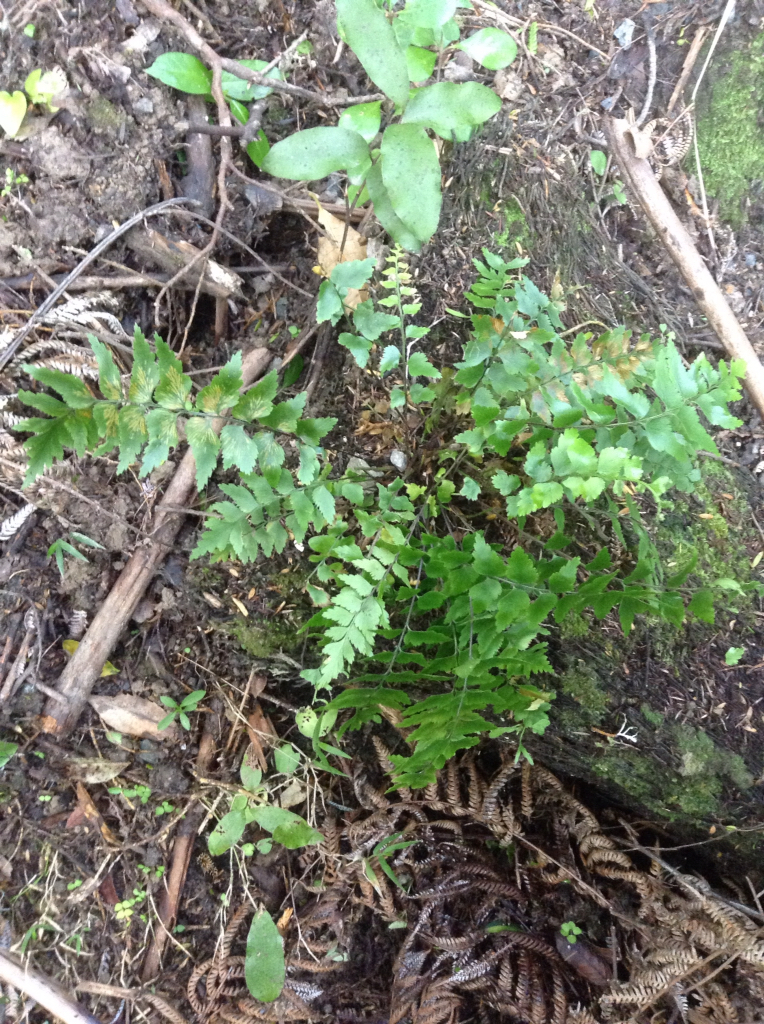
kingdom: Plantae
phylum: Tracheophyta
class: Polypodiopsida
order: Polypodiales
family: Aspleniaceae
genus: Asplenium
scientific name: Asplenium polyodon
